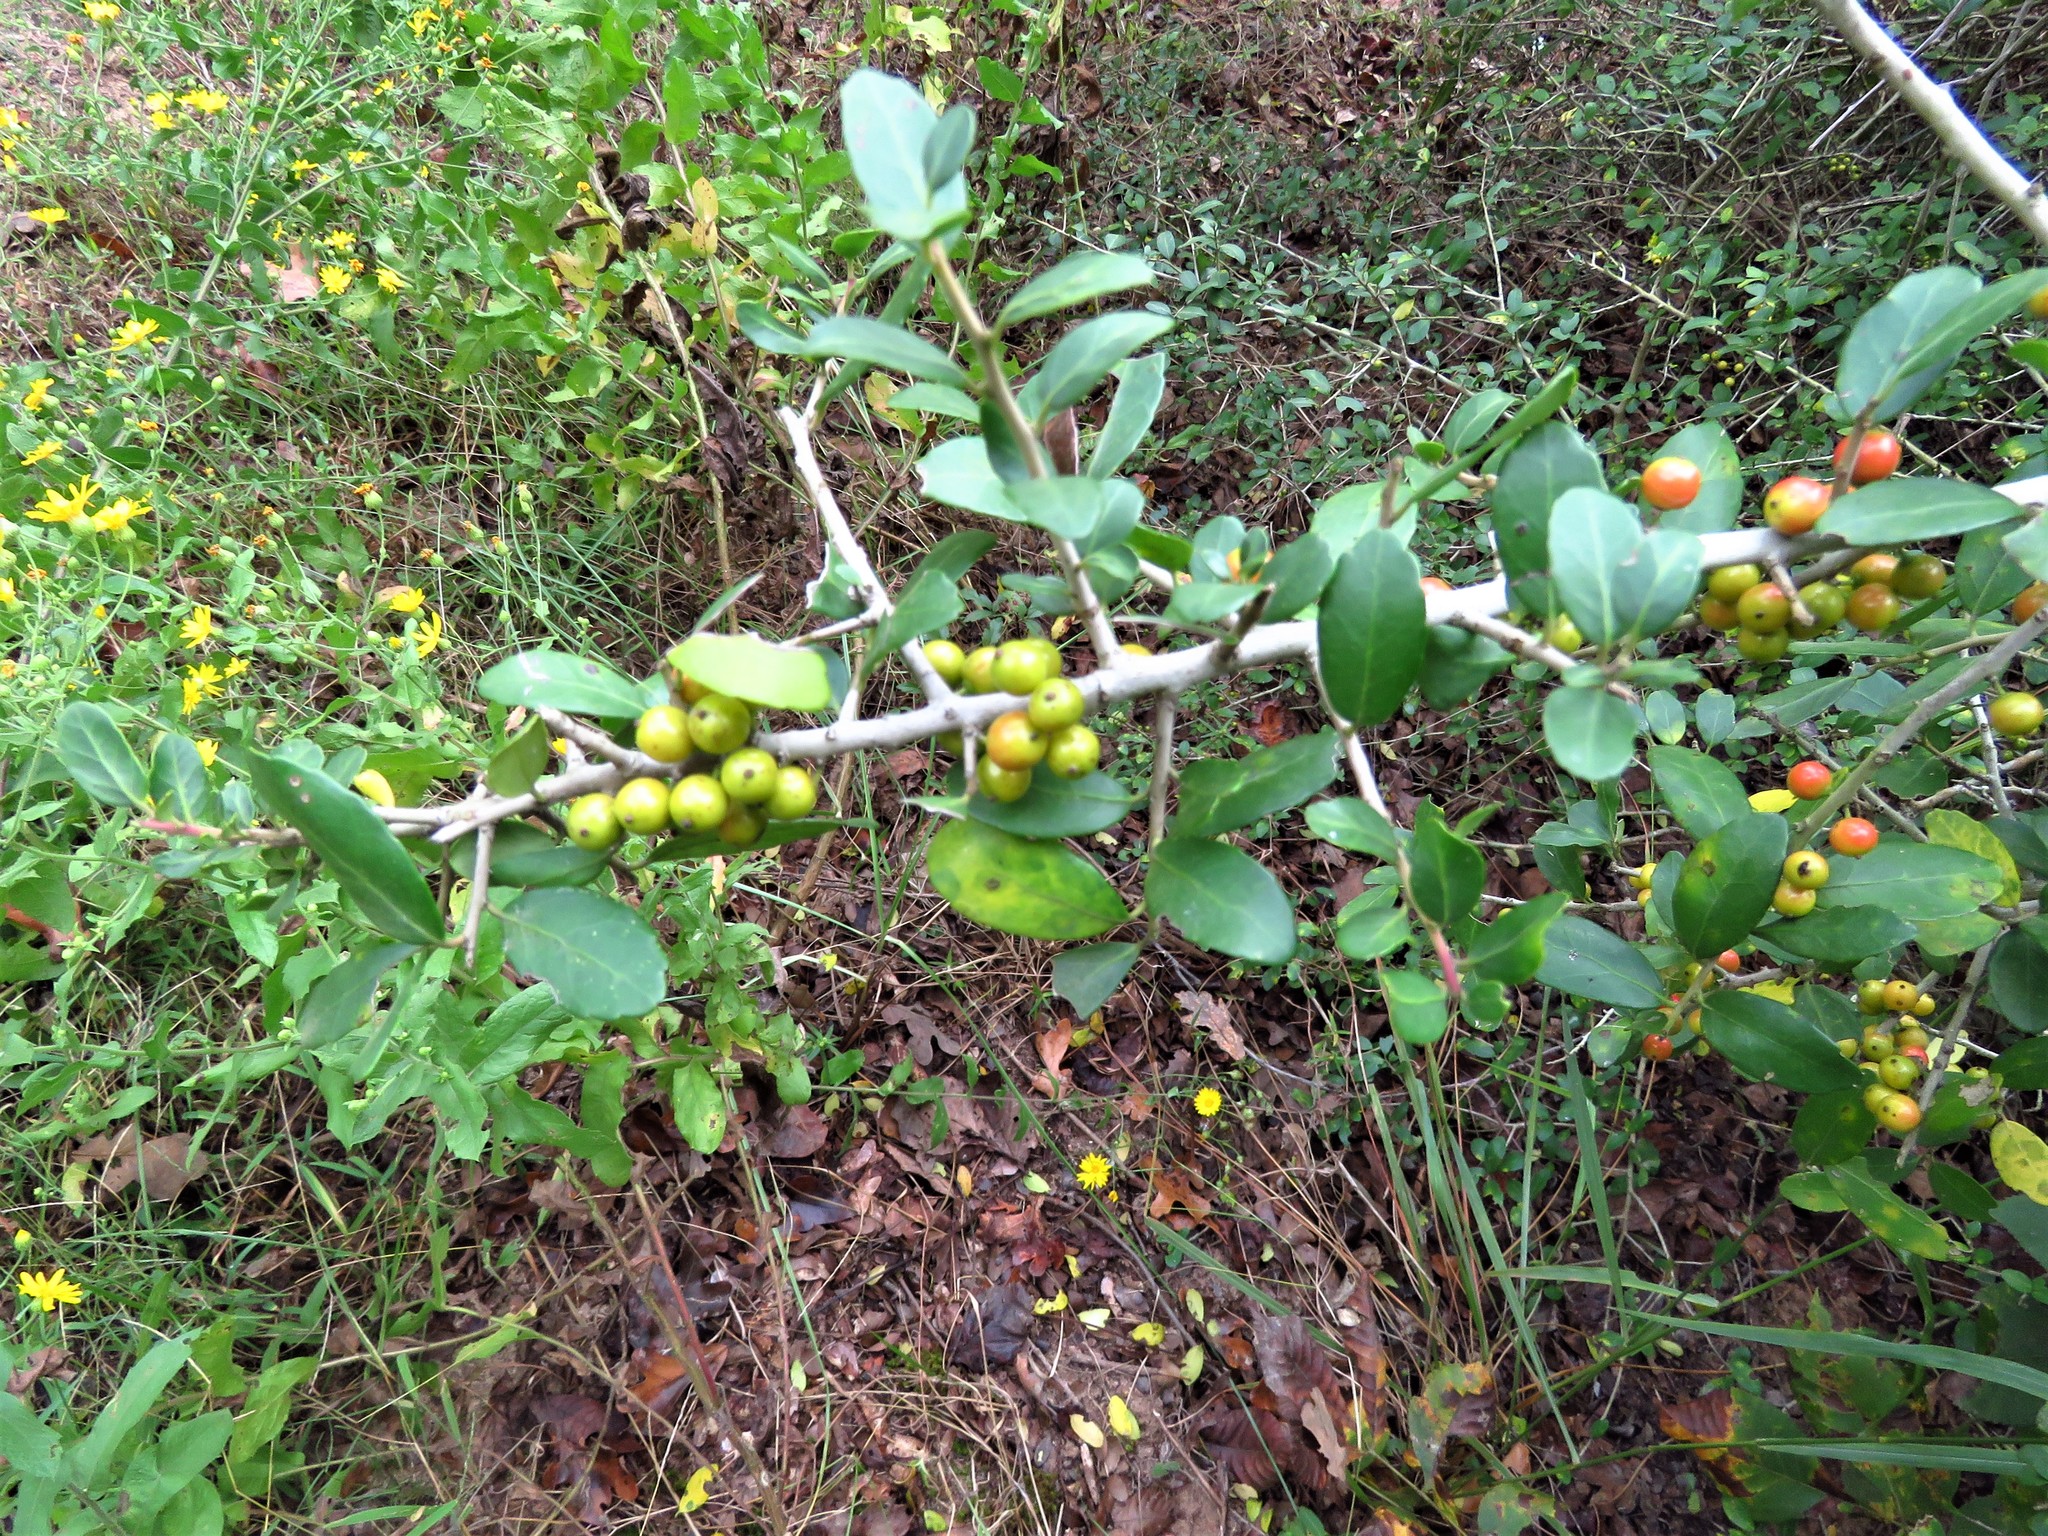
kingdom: Plantae
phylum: Tracheophyta
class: Magnoliopsida
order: Aquifoliales
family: Aquifoliaceae
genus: Ilex
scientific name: Ilex vomitoria
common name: Yaupon holly
